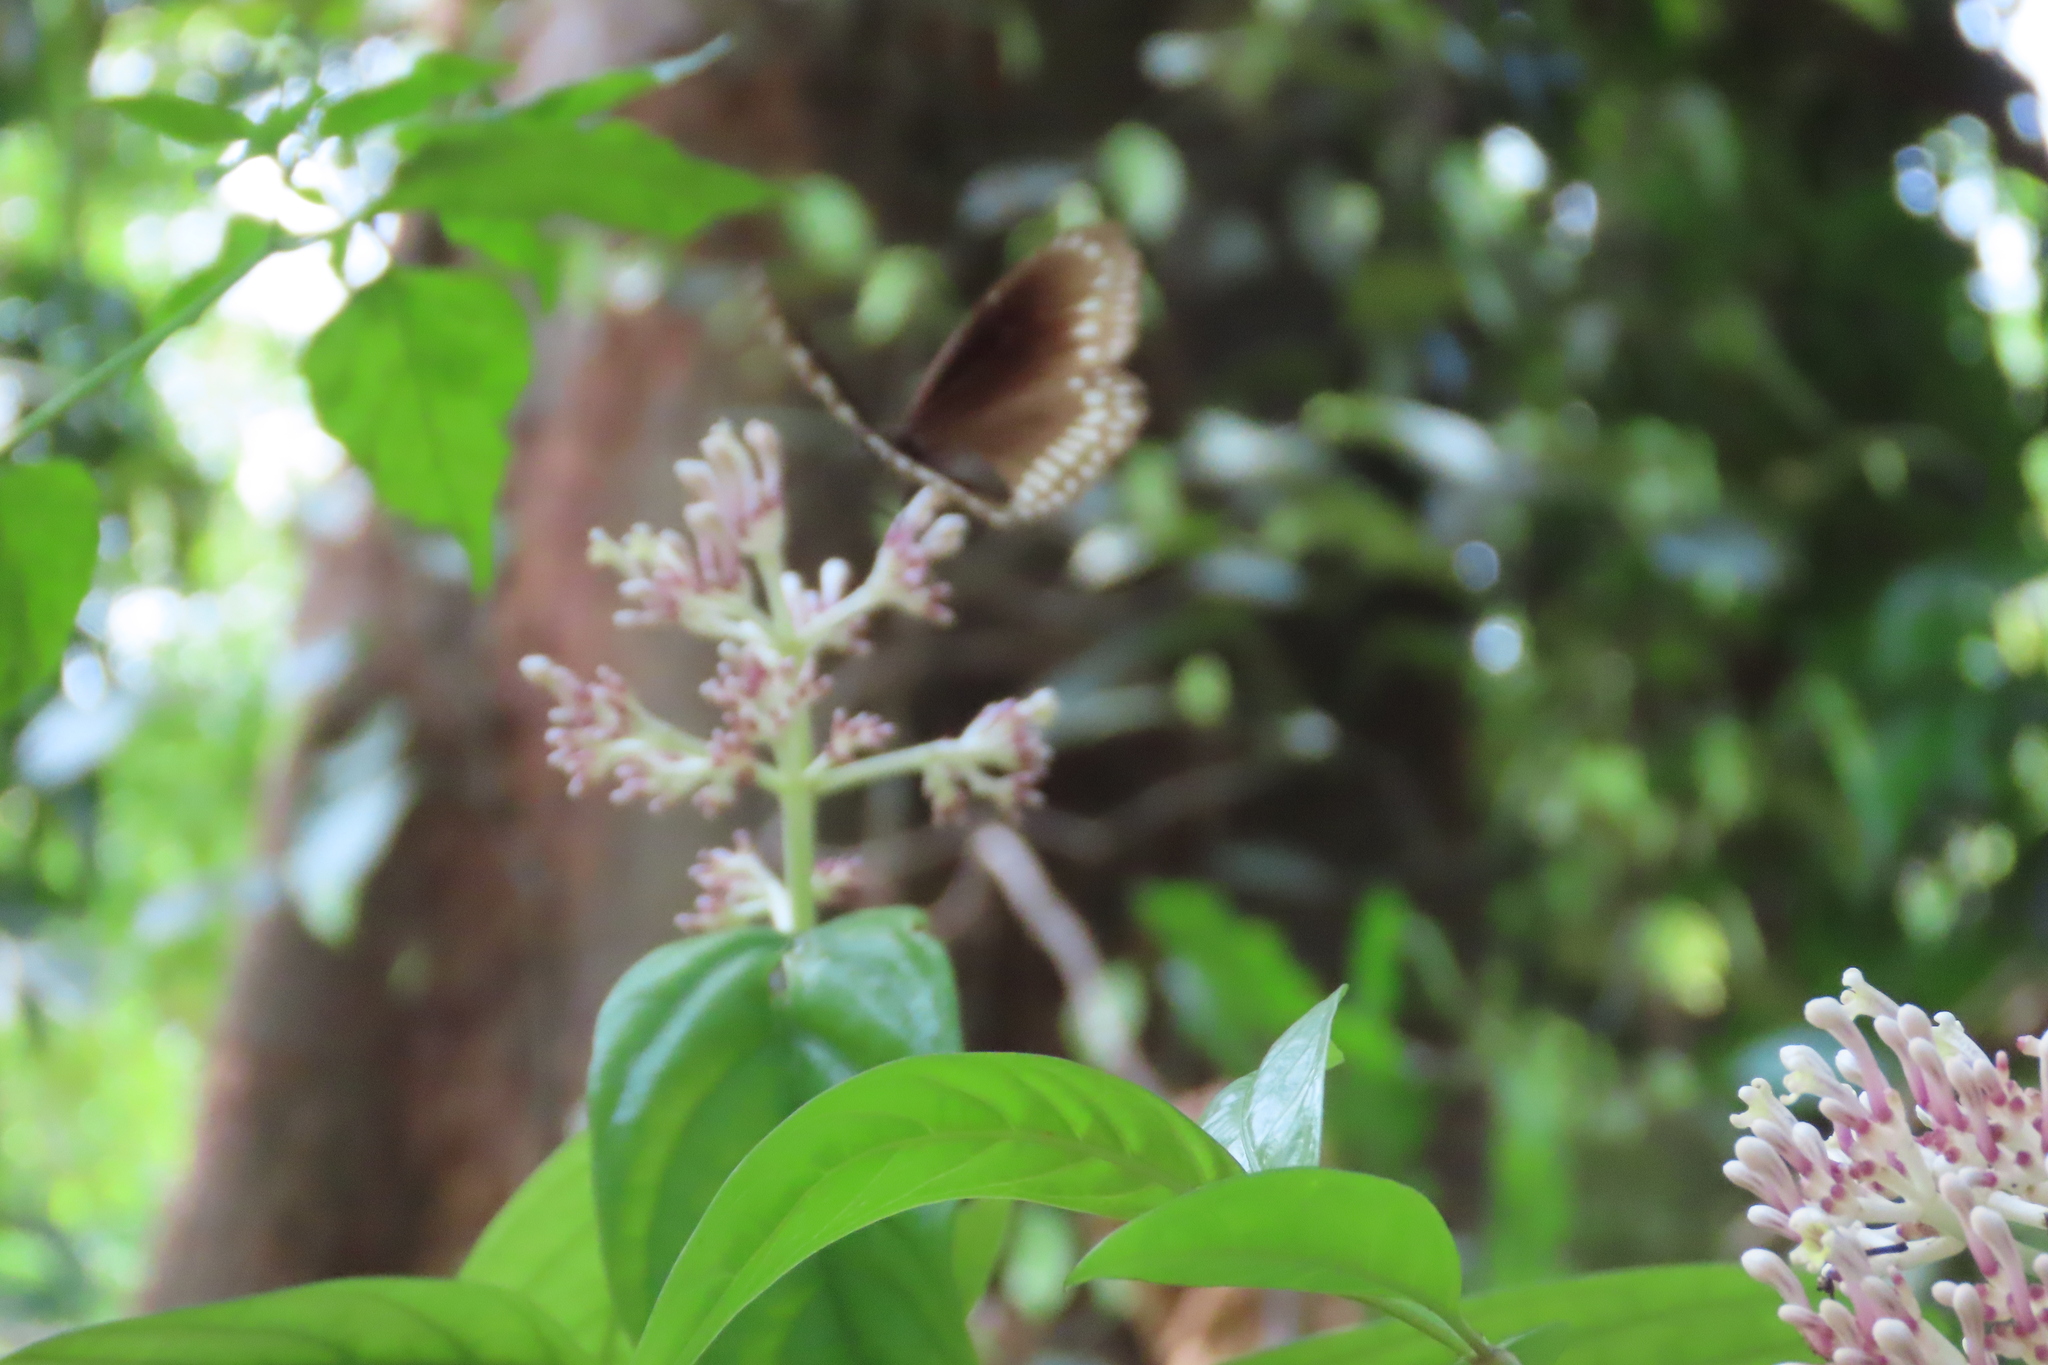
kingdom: Animalia
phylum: Arthropoda
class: Insecta
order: Lepidoptera
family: Nymphalidae
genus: Euploea
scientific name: Euploea core
